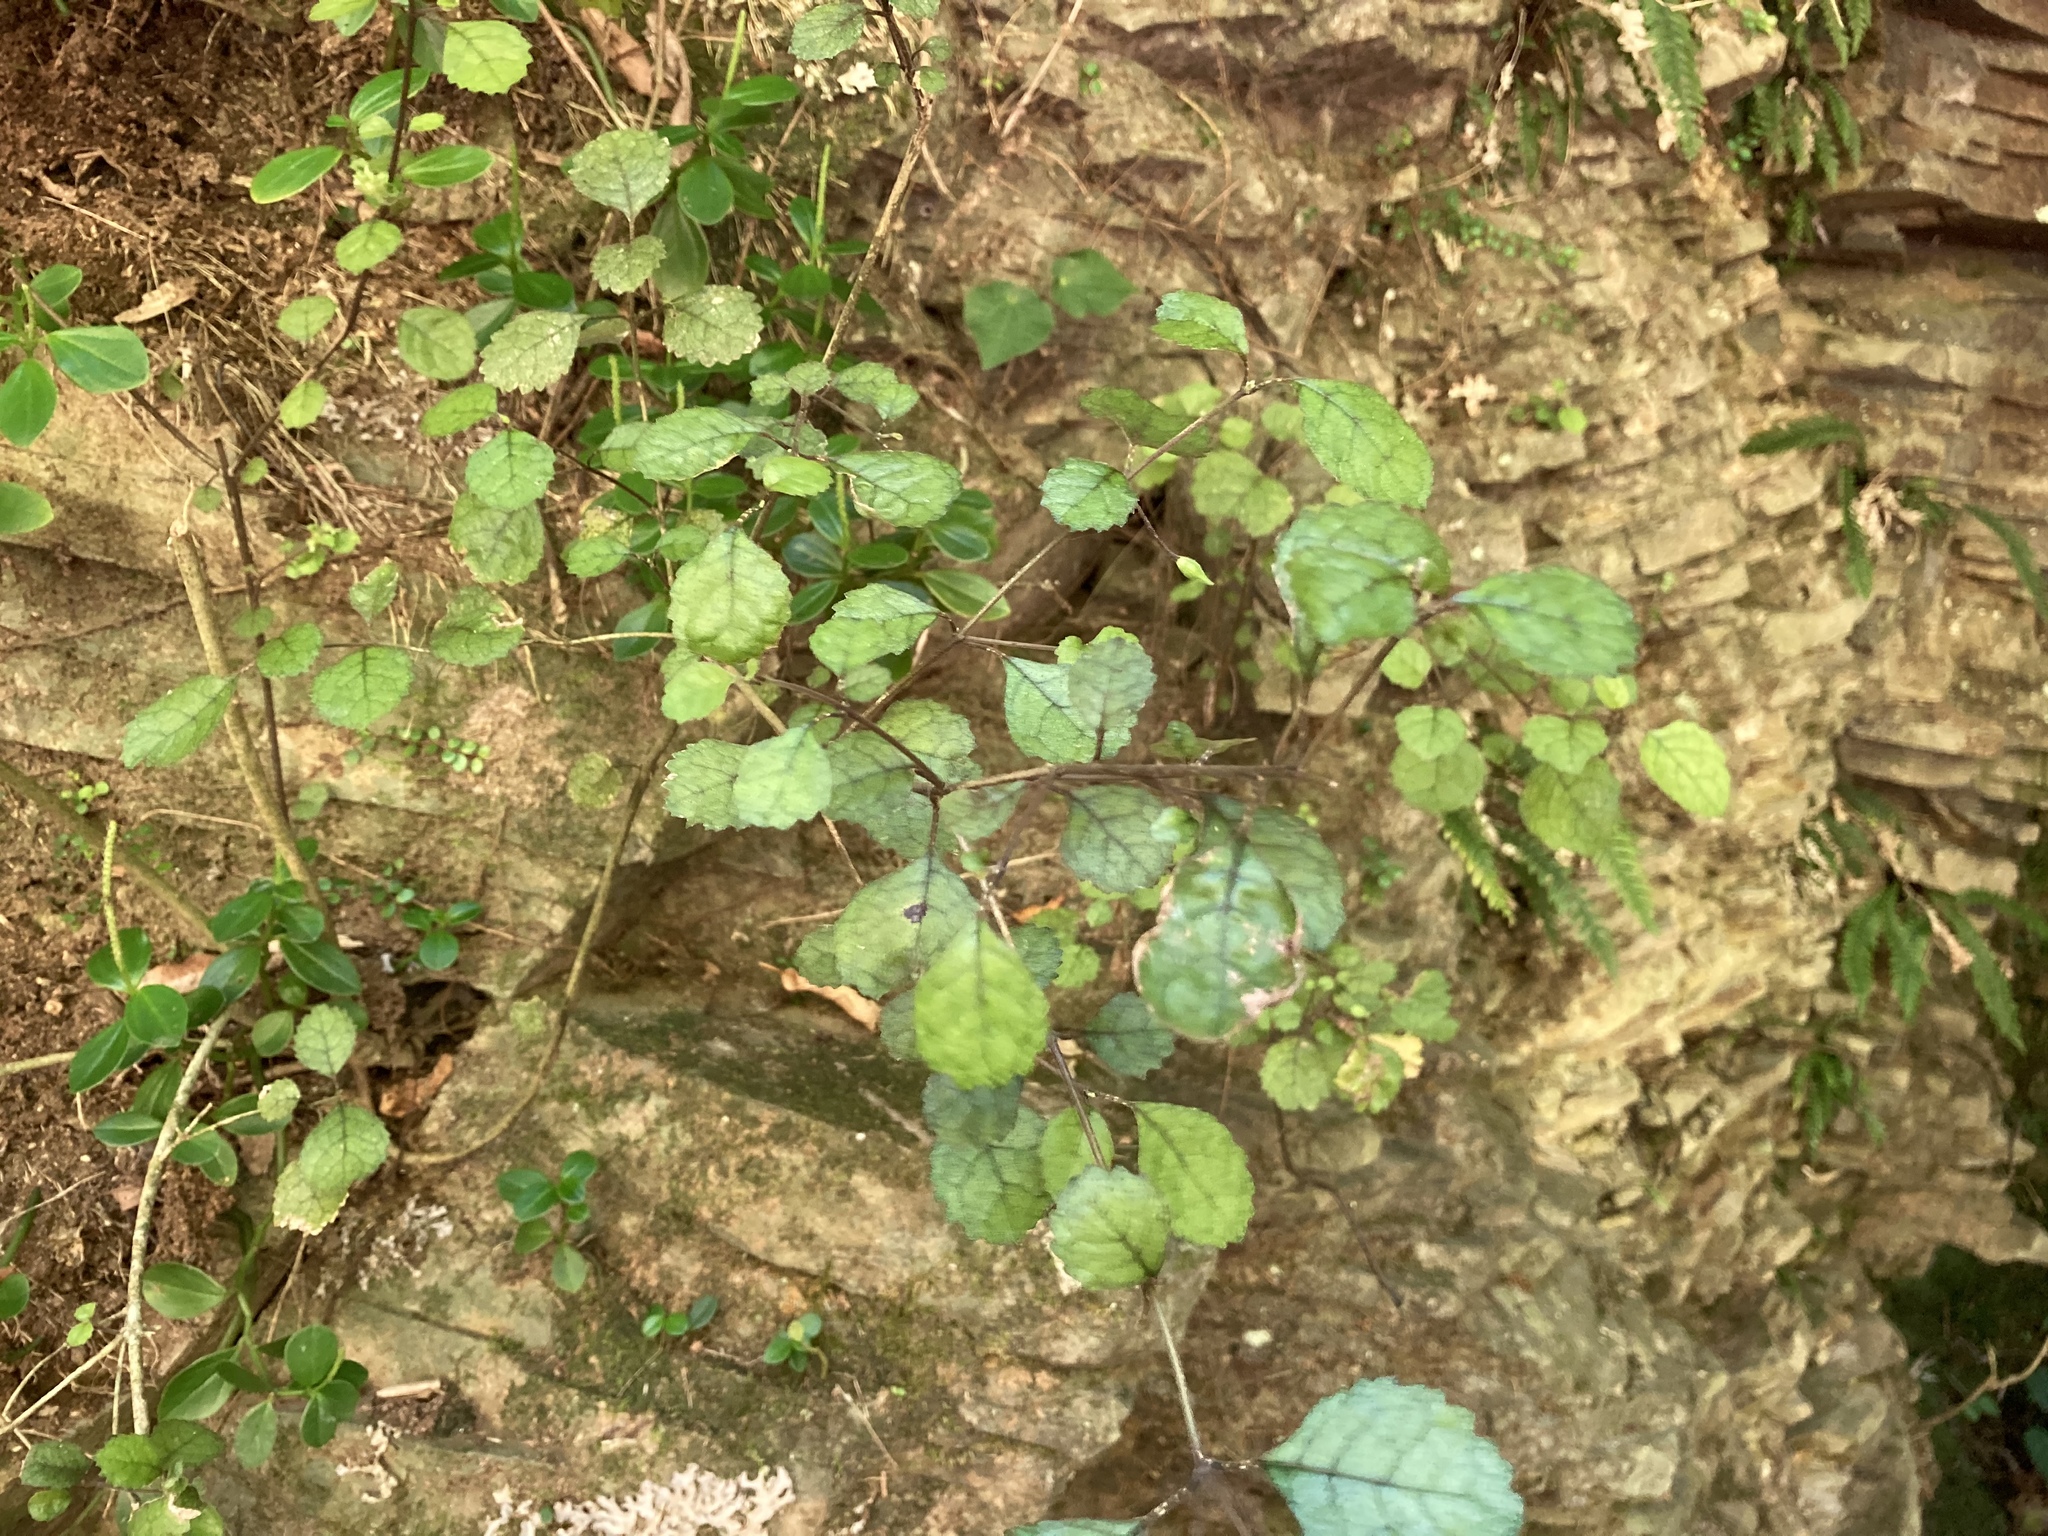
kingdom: Plantae
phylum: Tracheophyta
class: Magnoliopsida
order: Lamiales
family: Gesneriaceae
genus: Rhabdothamnus
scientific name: Rhabdothamnus solandri
